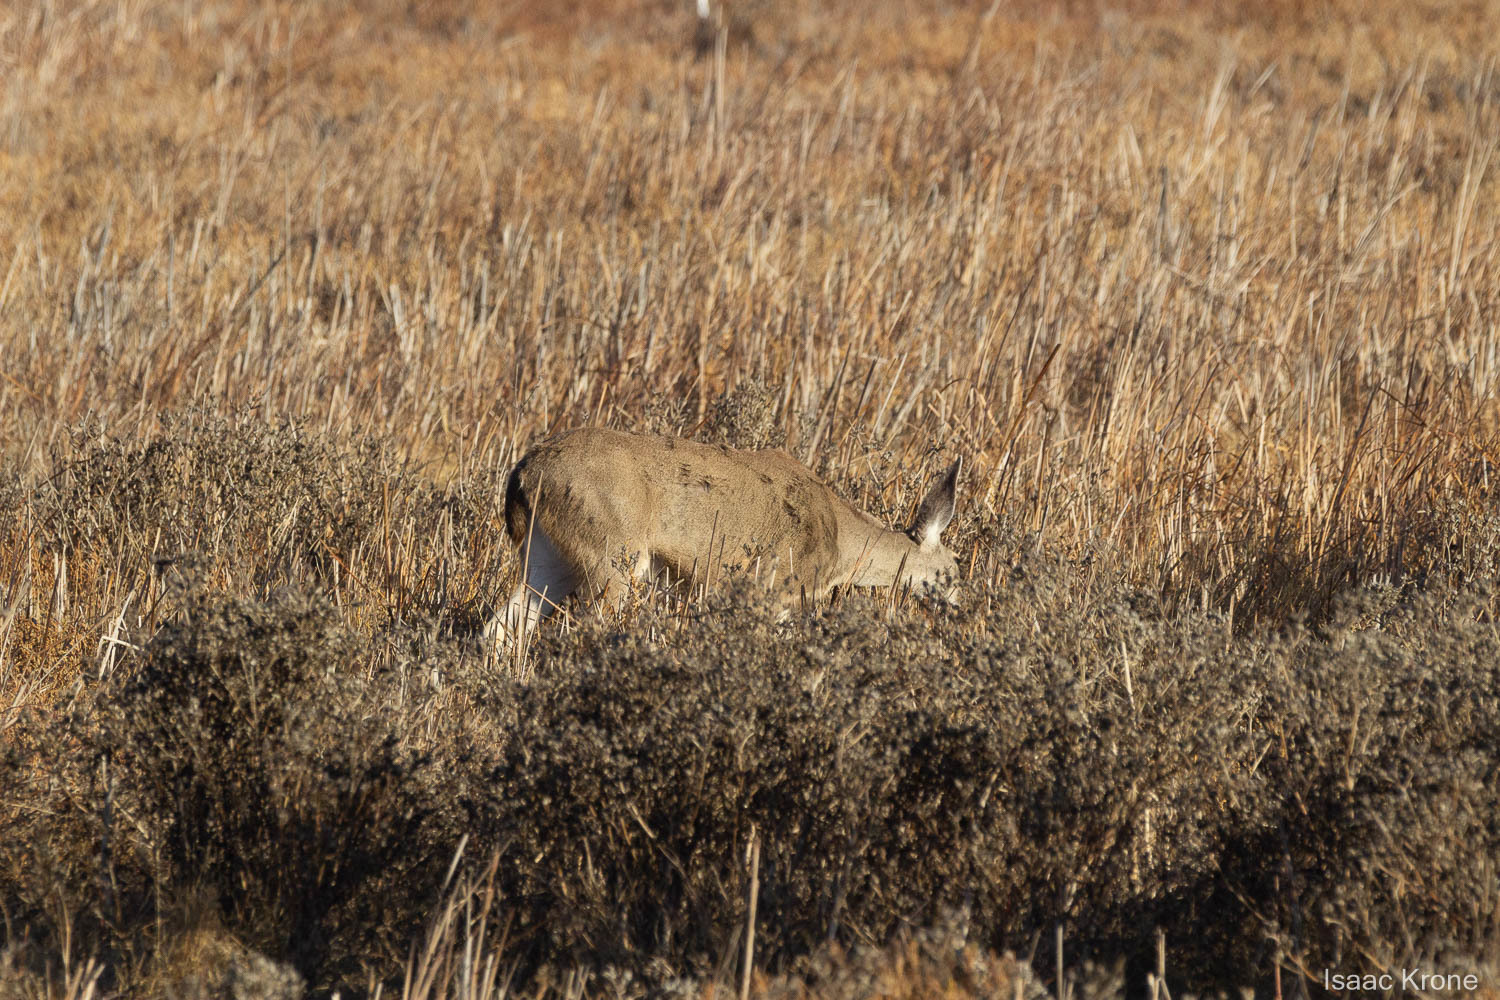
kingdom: Animalia
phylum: Chordata
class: Mammalia
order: Artiodactyla
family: Cervidae
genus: Odocoileus
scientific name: Odocoileus hemionus
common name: Mule deer
